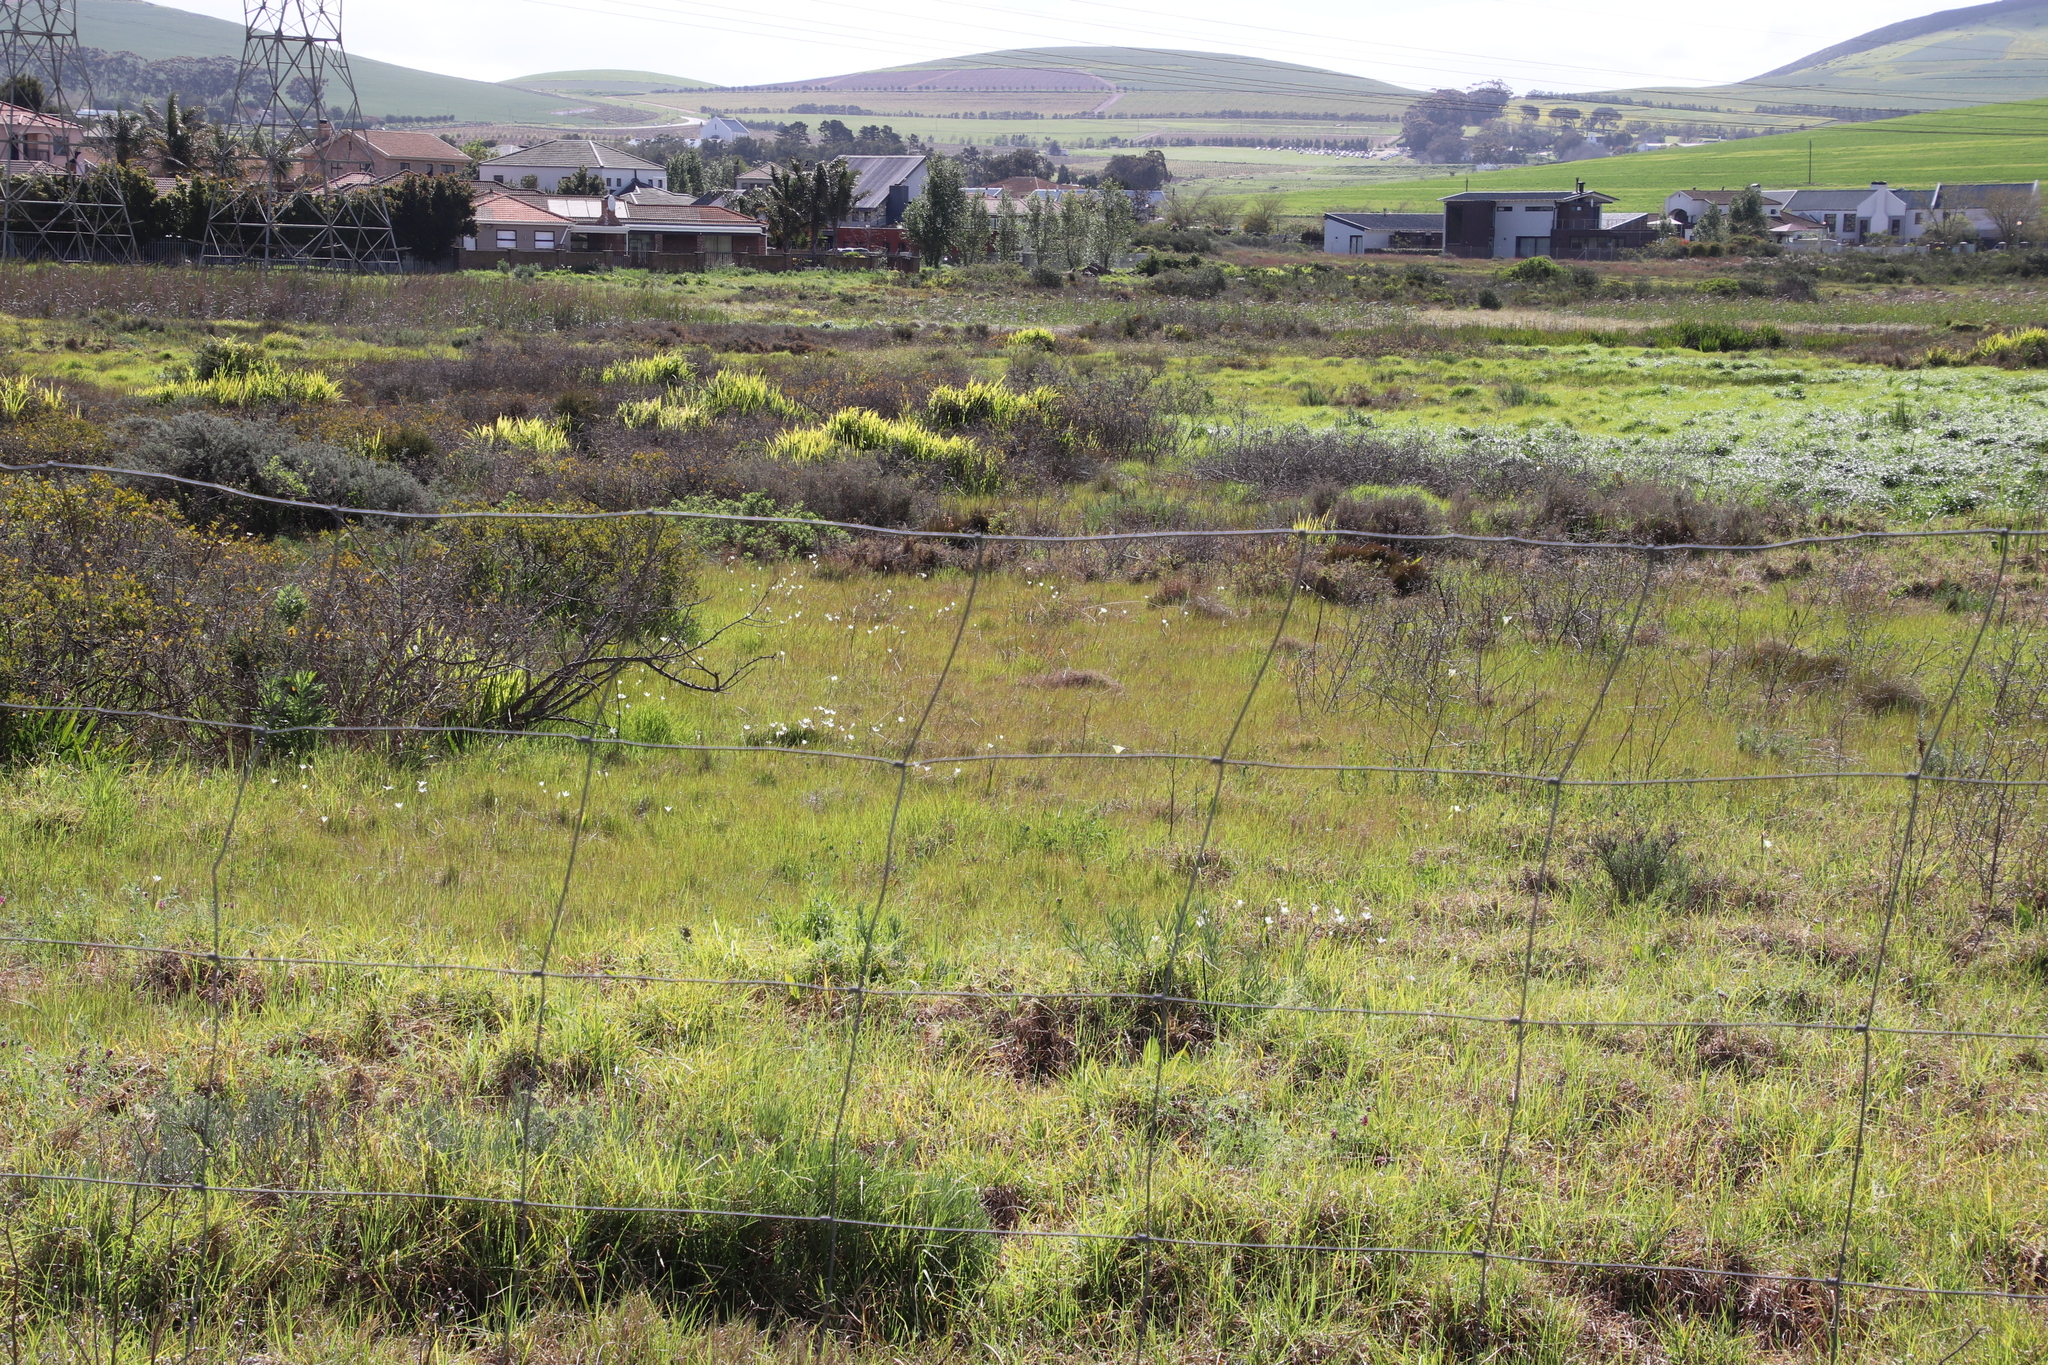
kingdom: Plantae
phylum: Tracheophyta
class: Liliopsida
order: Asparagales
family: Iridaceae
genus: Sparaxis
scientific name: Sparaxis bulbifera
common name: Harlequin-flower
